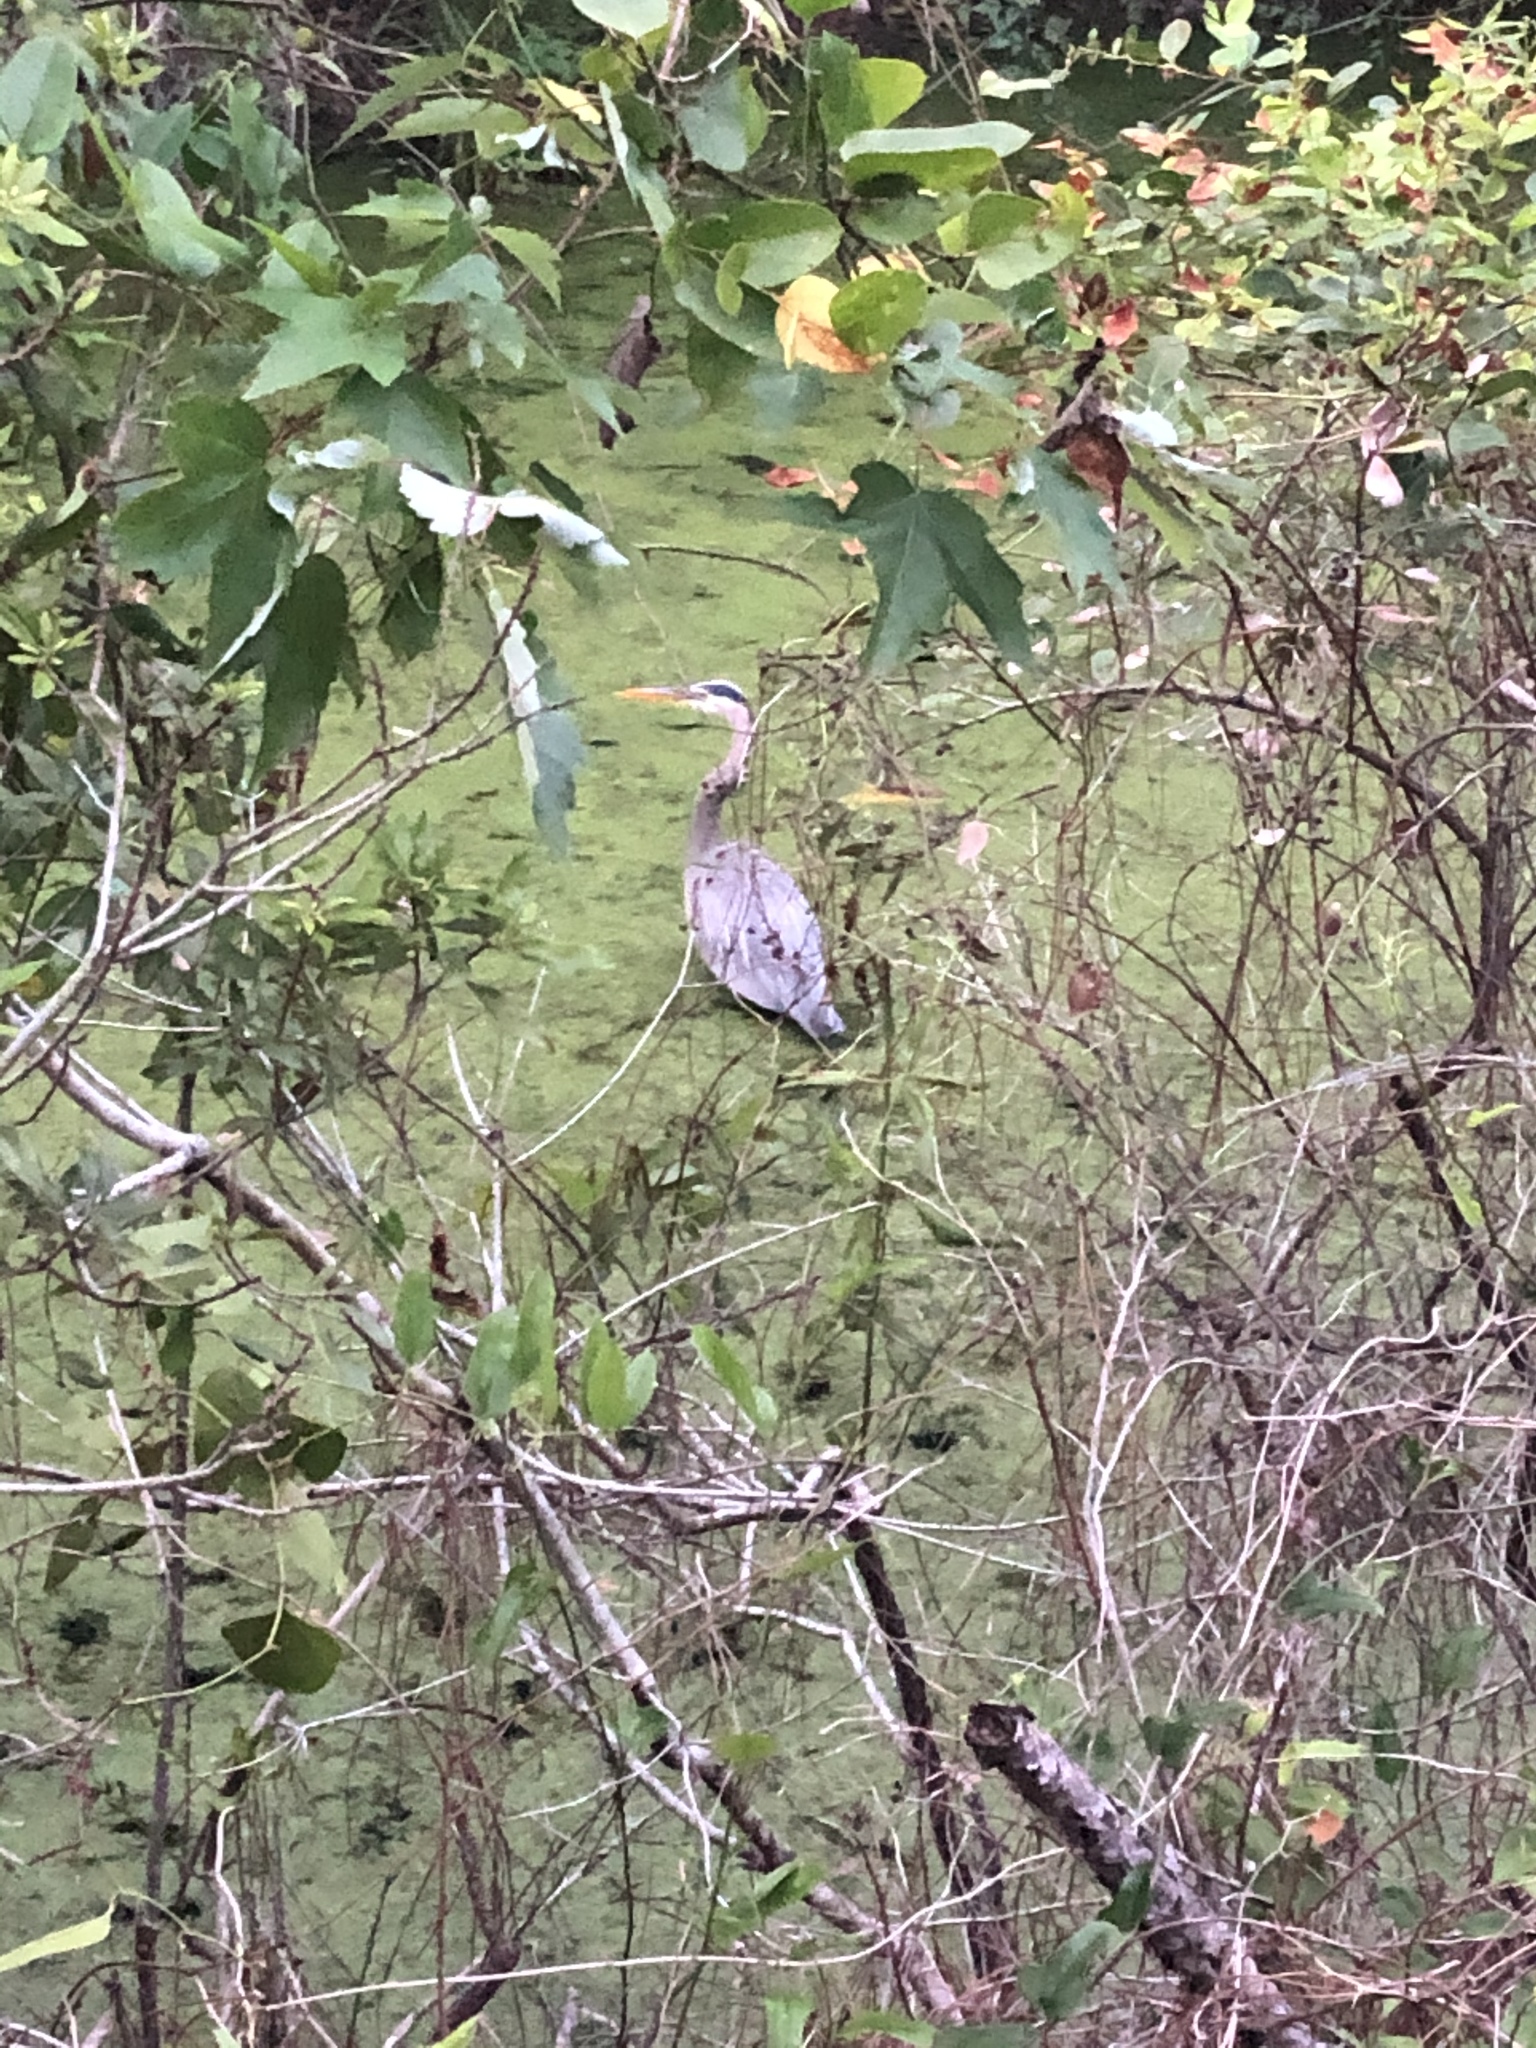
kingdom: Animalia
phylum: Chordata
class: Aves
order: Pelecaniformes
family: Ardeidae
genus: Ardea
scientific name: Ardea herodias
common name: Great blue heron
